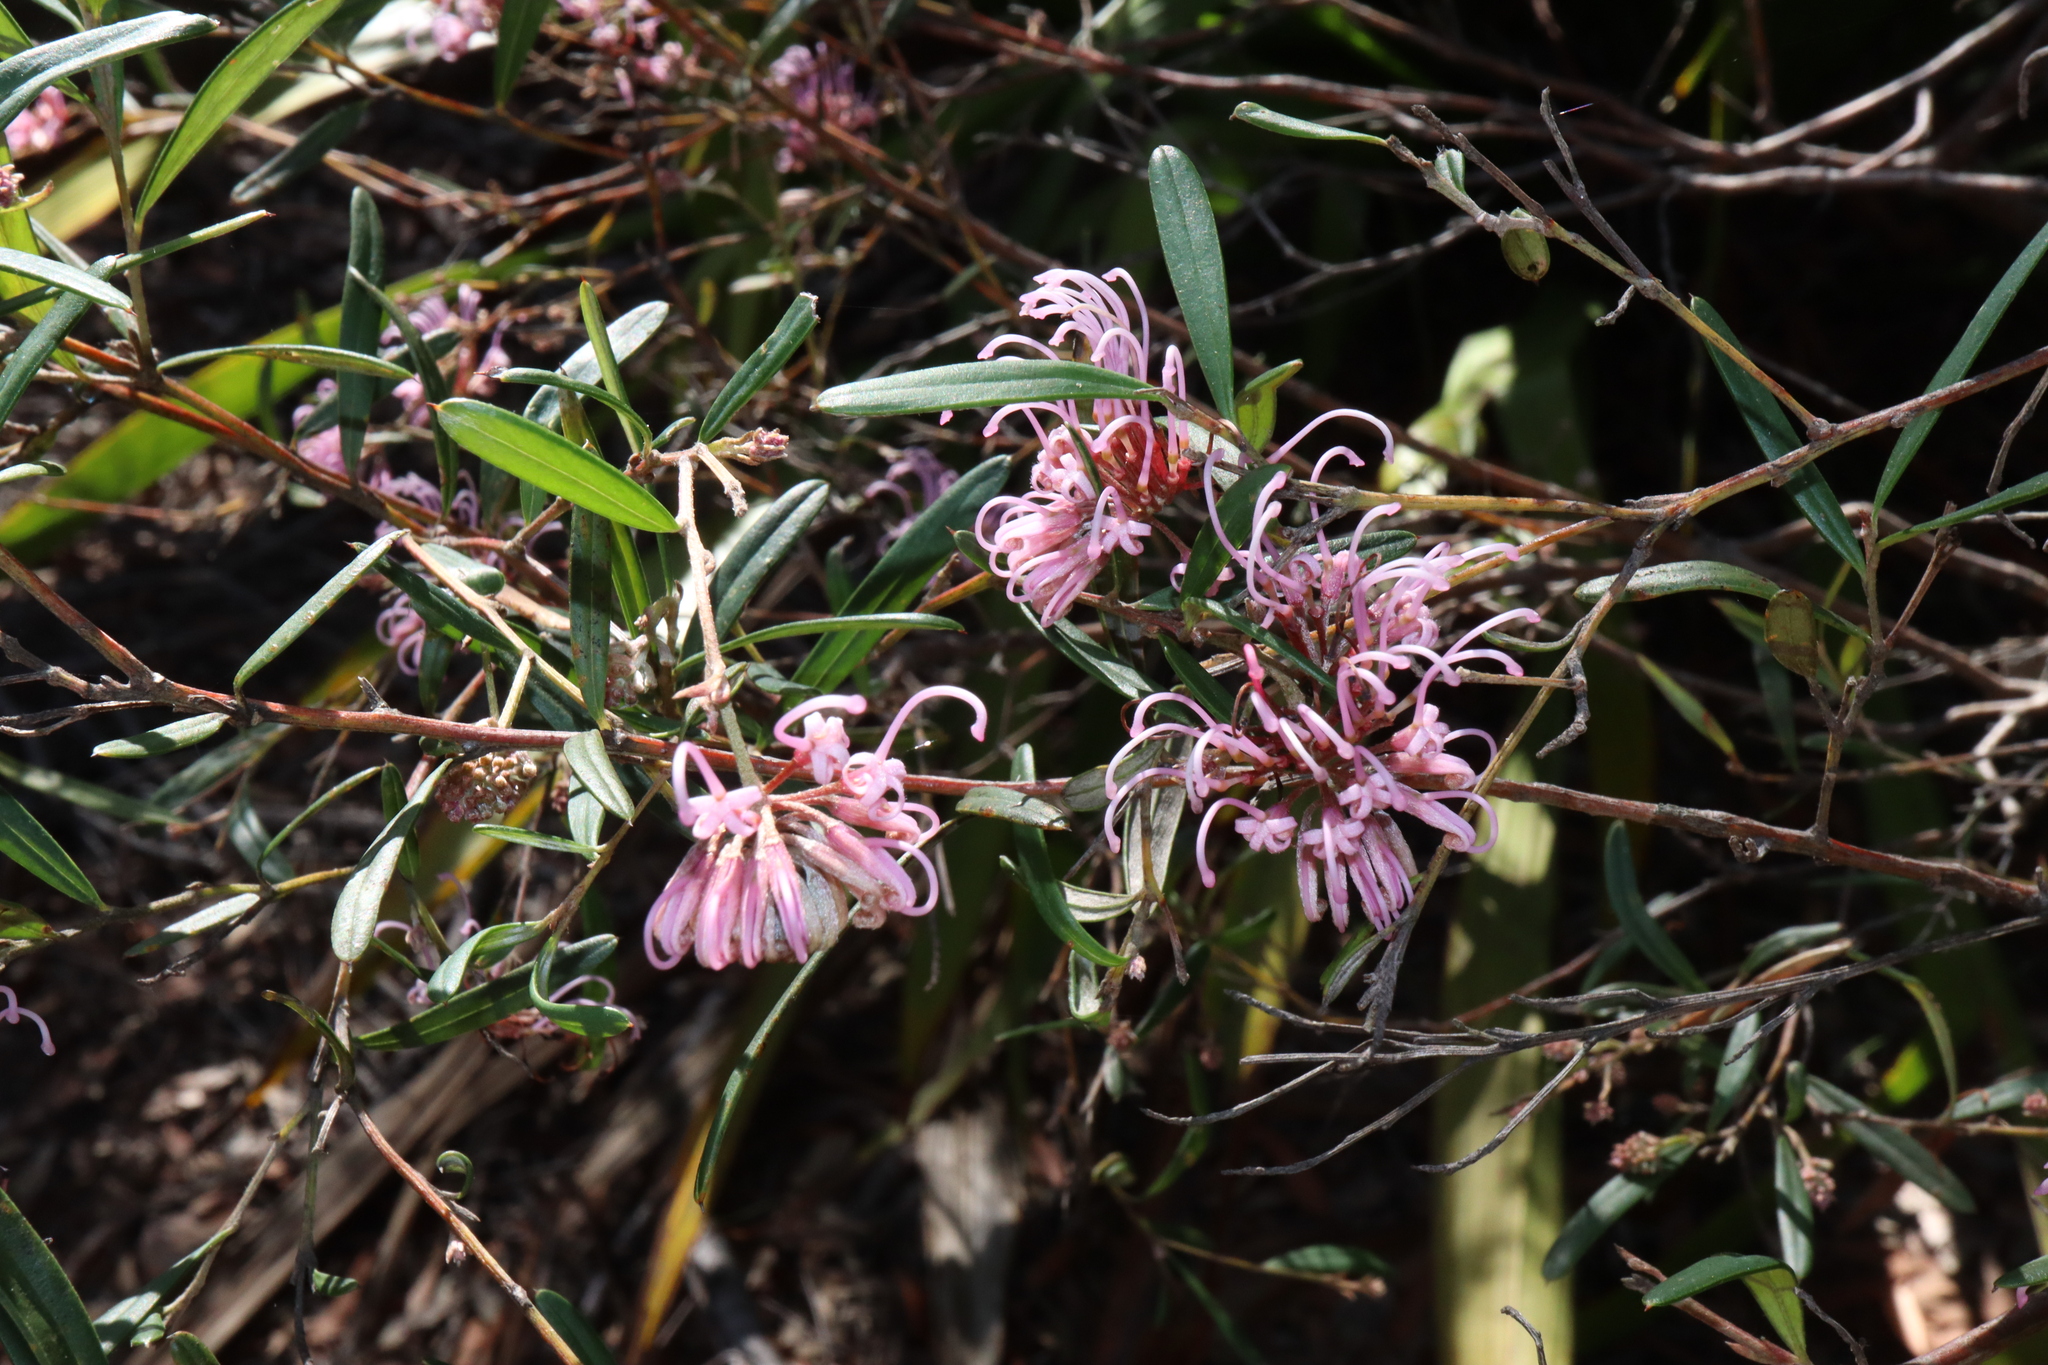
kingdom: Plantae
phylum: Tracheophyta
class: Magnoliopsida
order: Proteales
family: Proteaceae
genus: Grevillea
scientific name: Grevillea sericea
